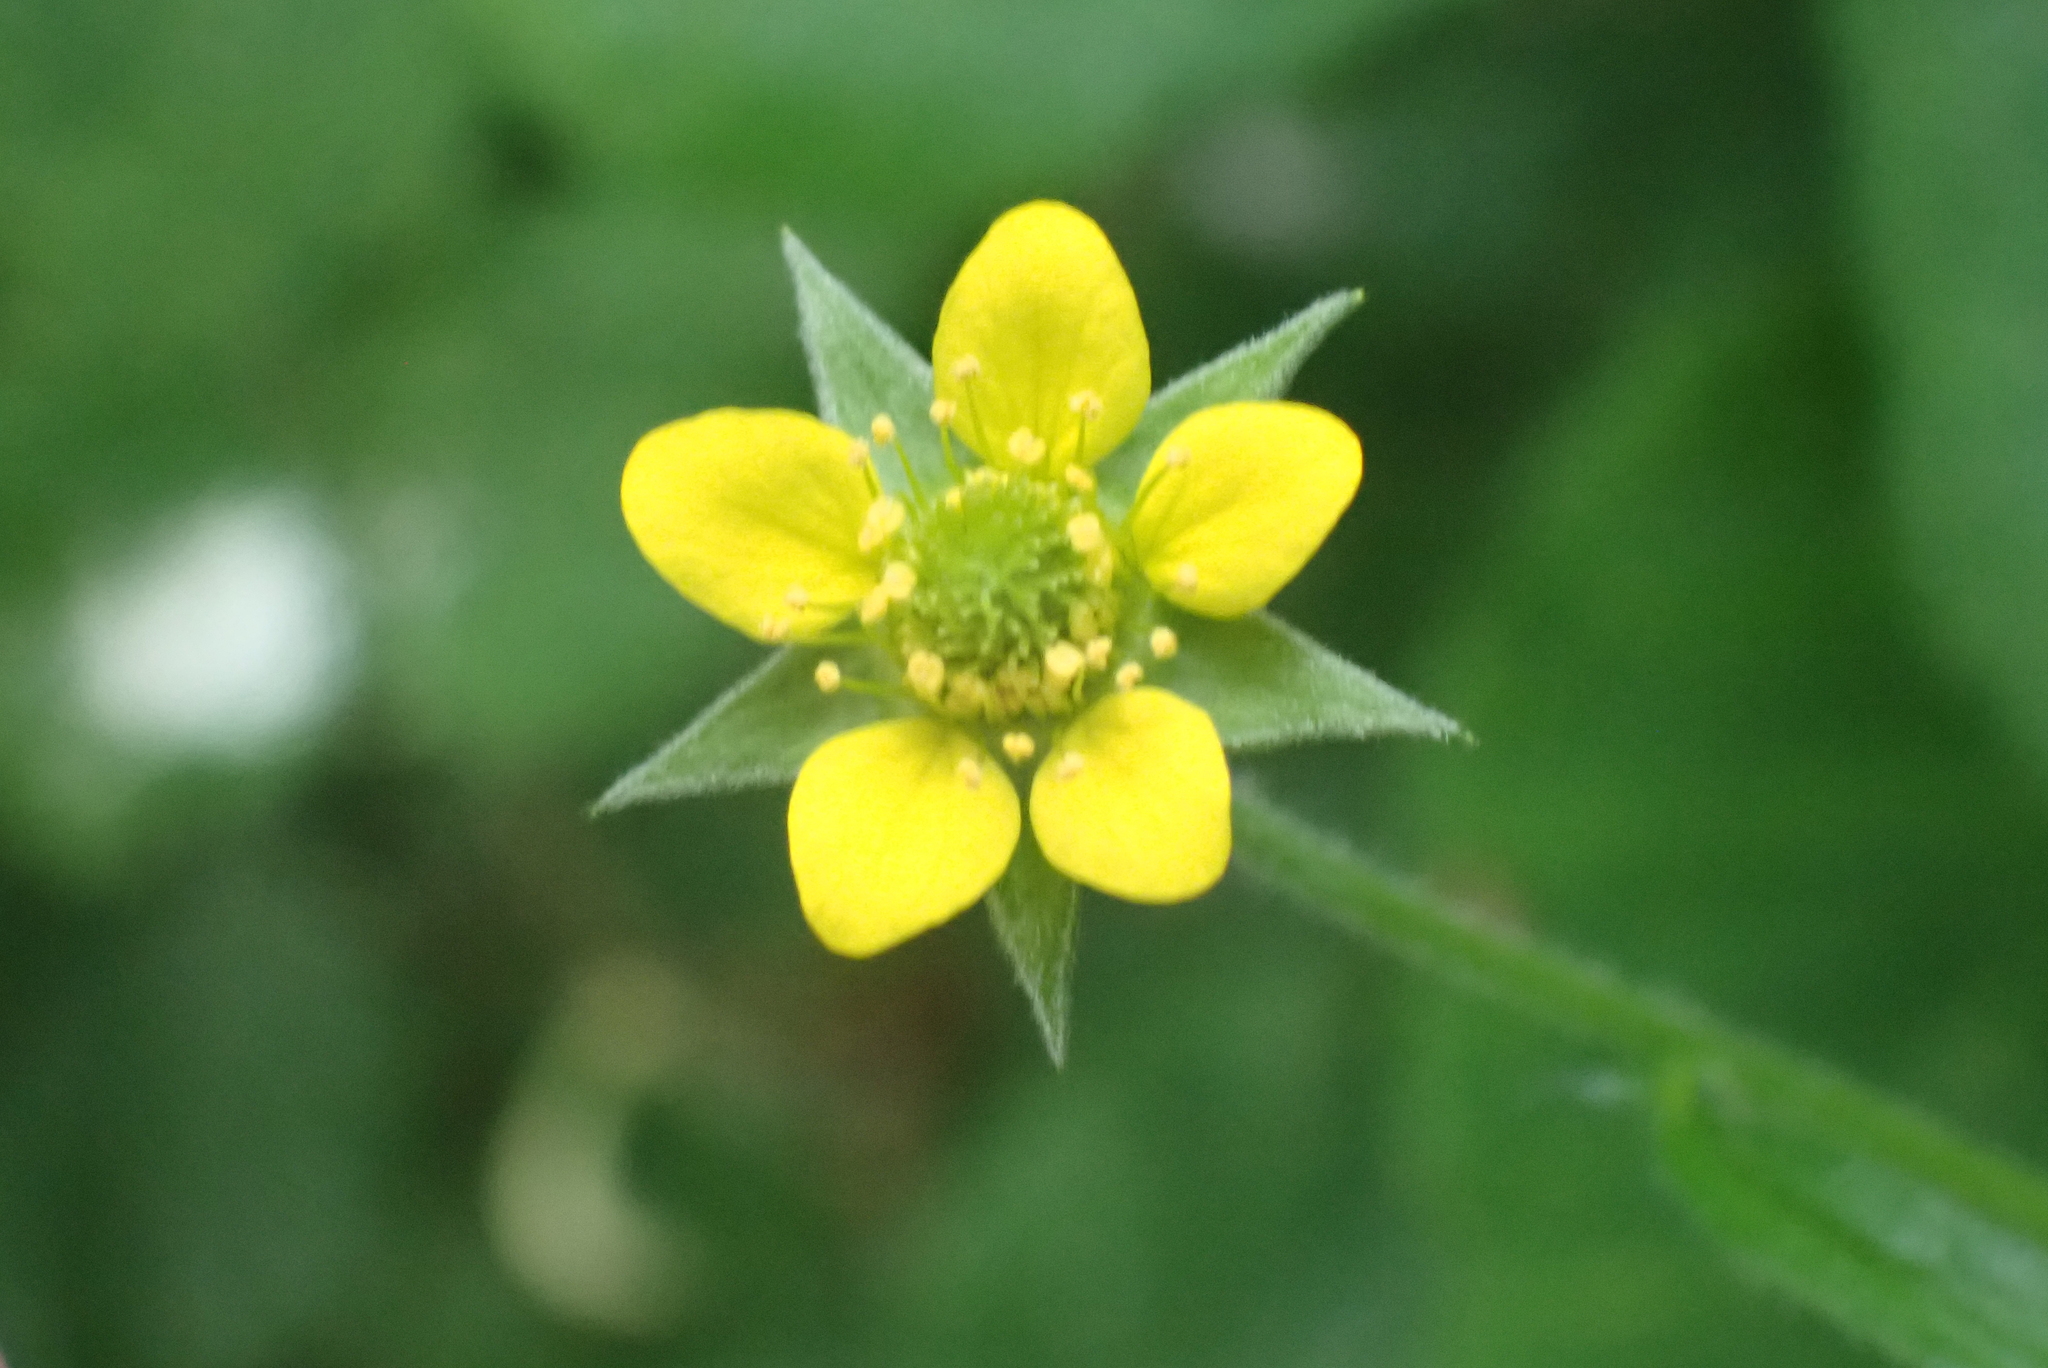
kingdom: Plantae
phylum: Tracheophyta
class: Magnoliopsida
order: Rosales
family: Rosaceae
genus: Geum
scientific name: Geum urbanum
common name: Wood avens
